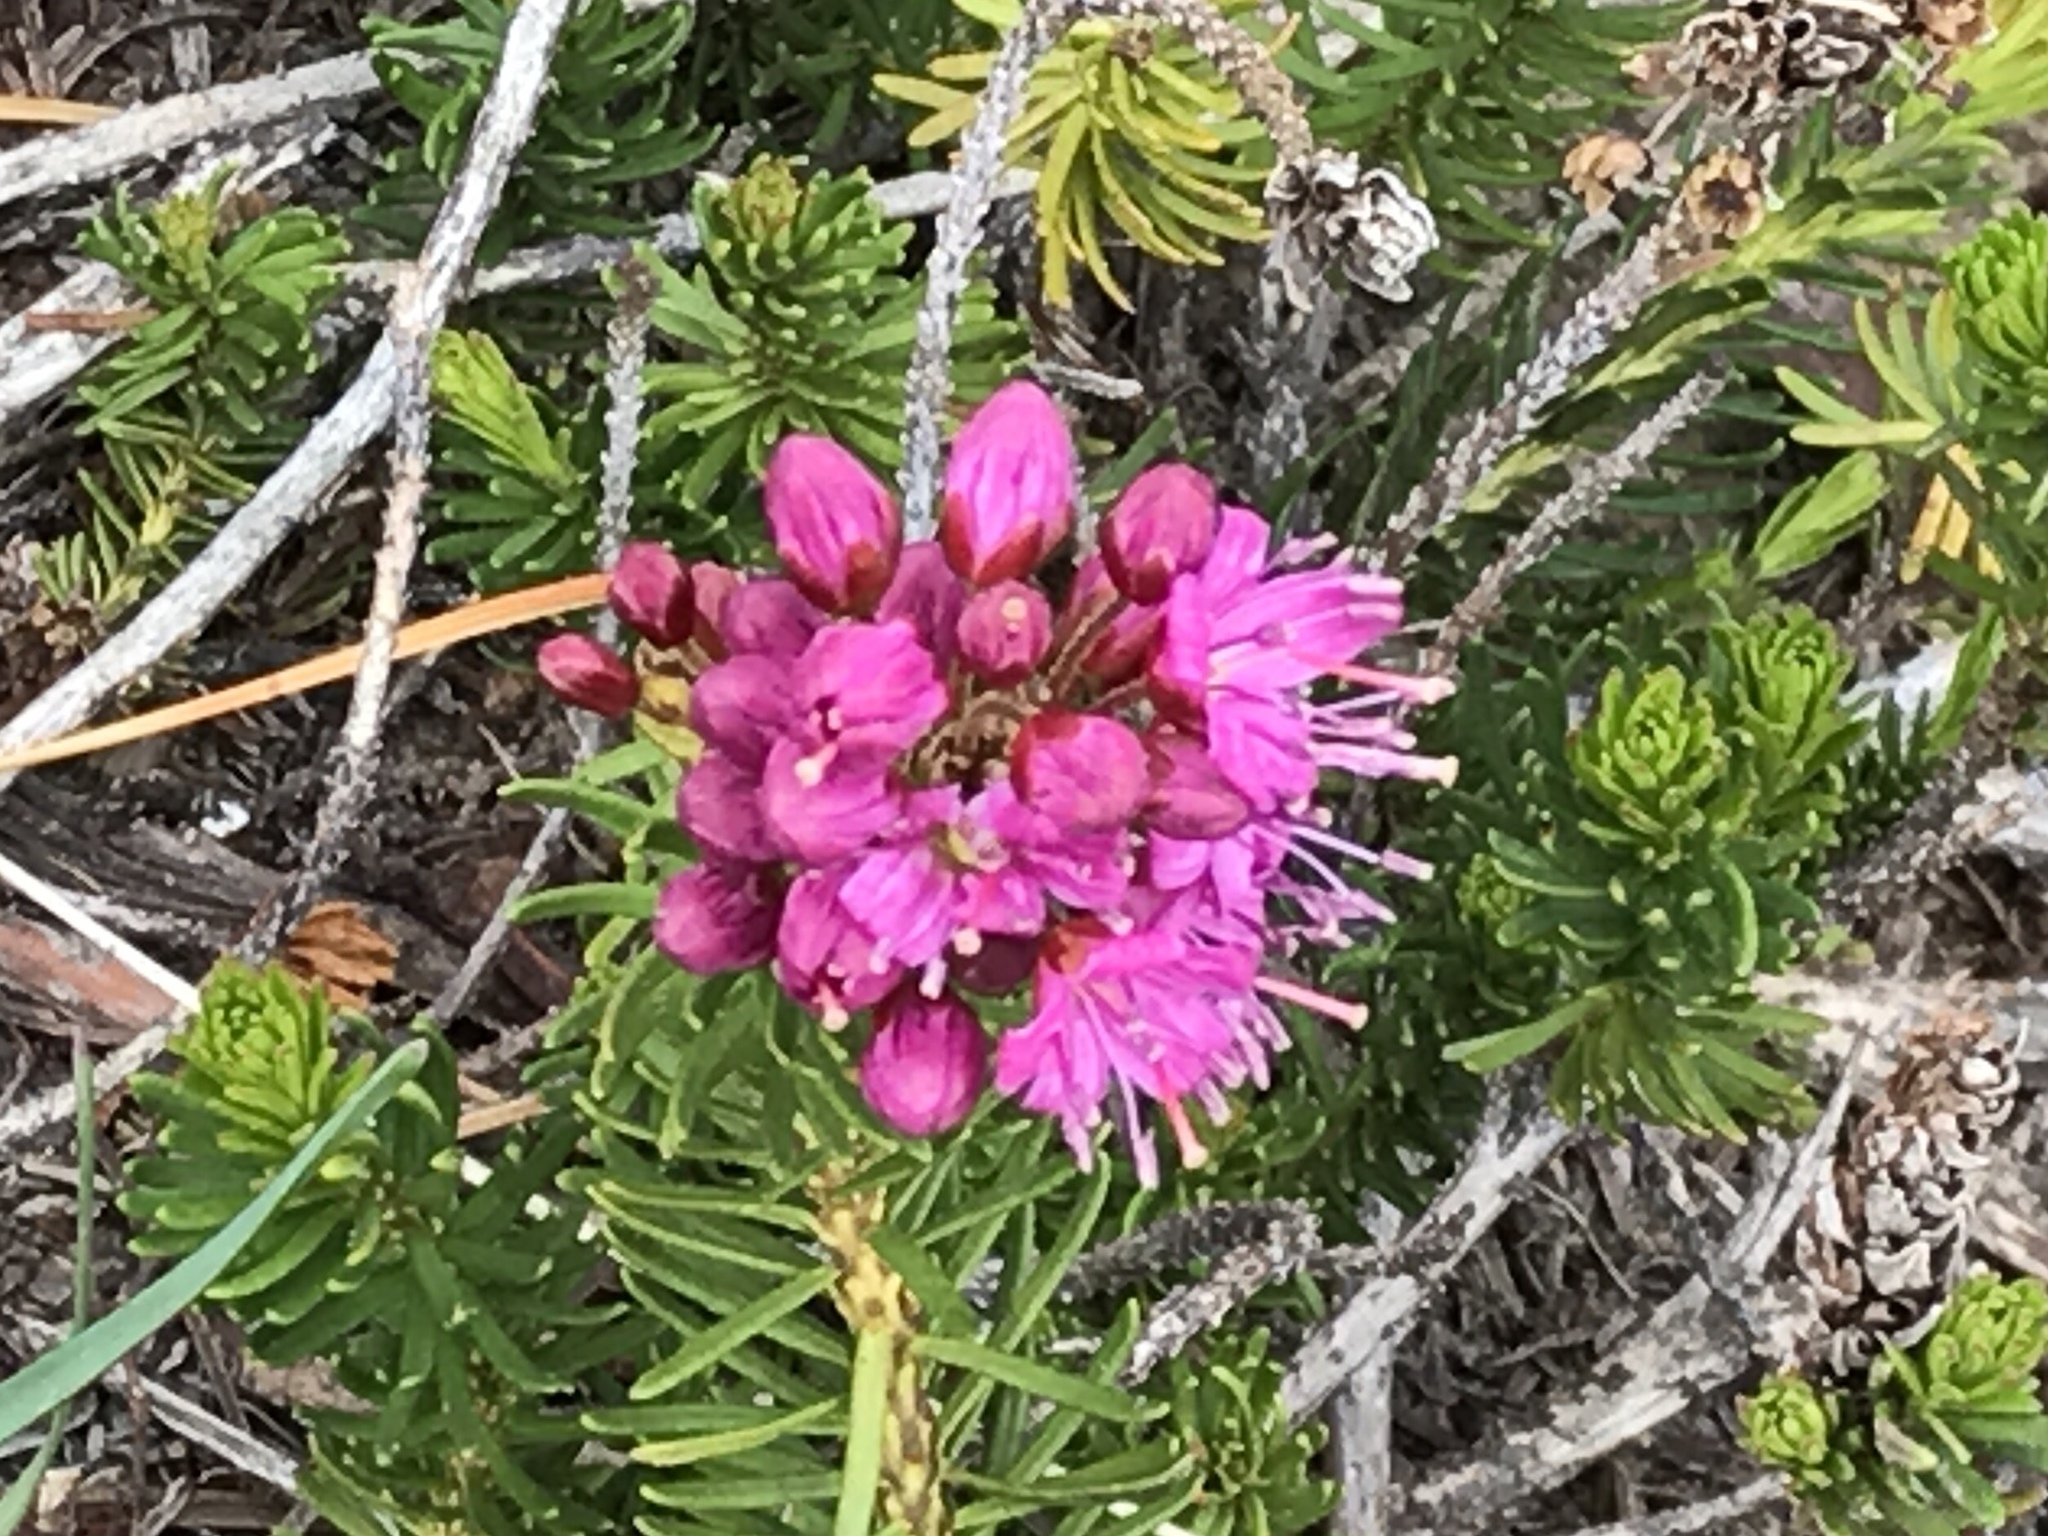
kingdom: Plantae
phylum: Tracheophyta
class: Magnoliopsida
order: Ericales
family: Ericaceae
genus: Phyllodoce
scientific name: Phyllodoce breweri
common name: Brewer's mountain-heather
